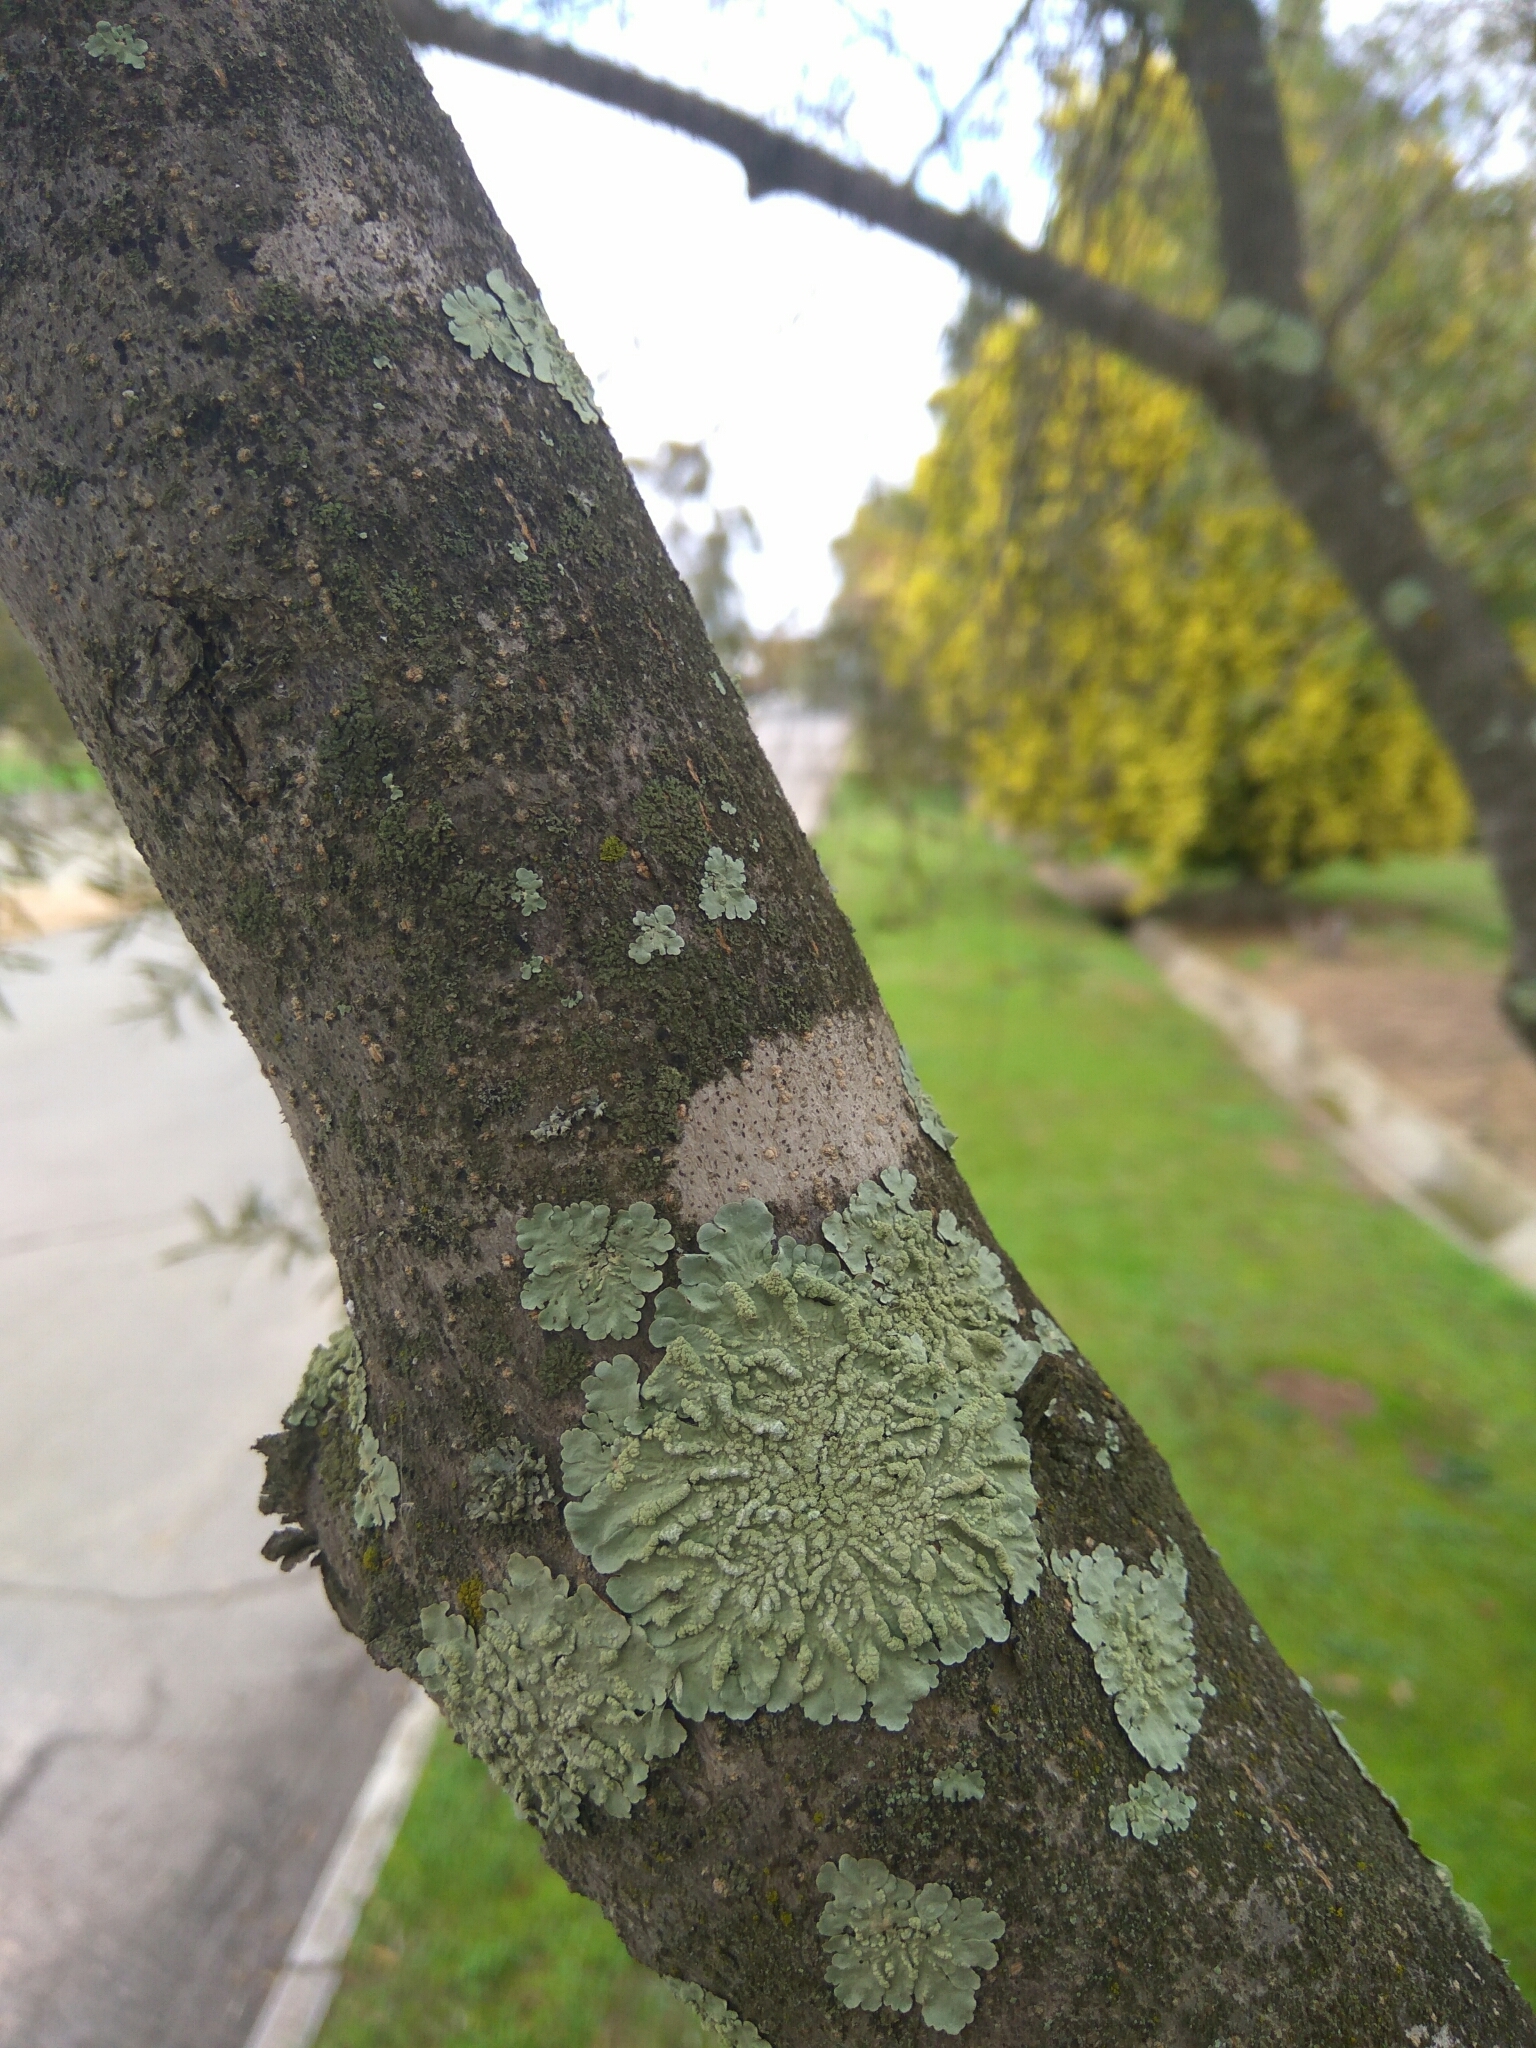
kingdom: Fungi
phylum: Ascomycota
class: Lecanoromycetes
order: Lecanorales
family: Parmeliaceae
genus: Flavoparmelia
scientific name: Flavoparmelia caperata
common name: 40-mile per hour lichen
